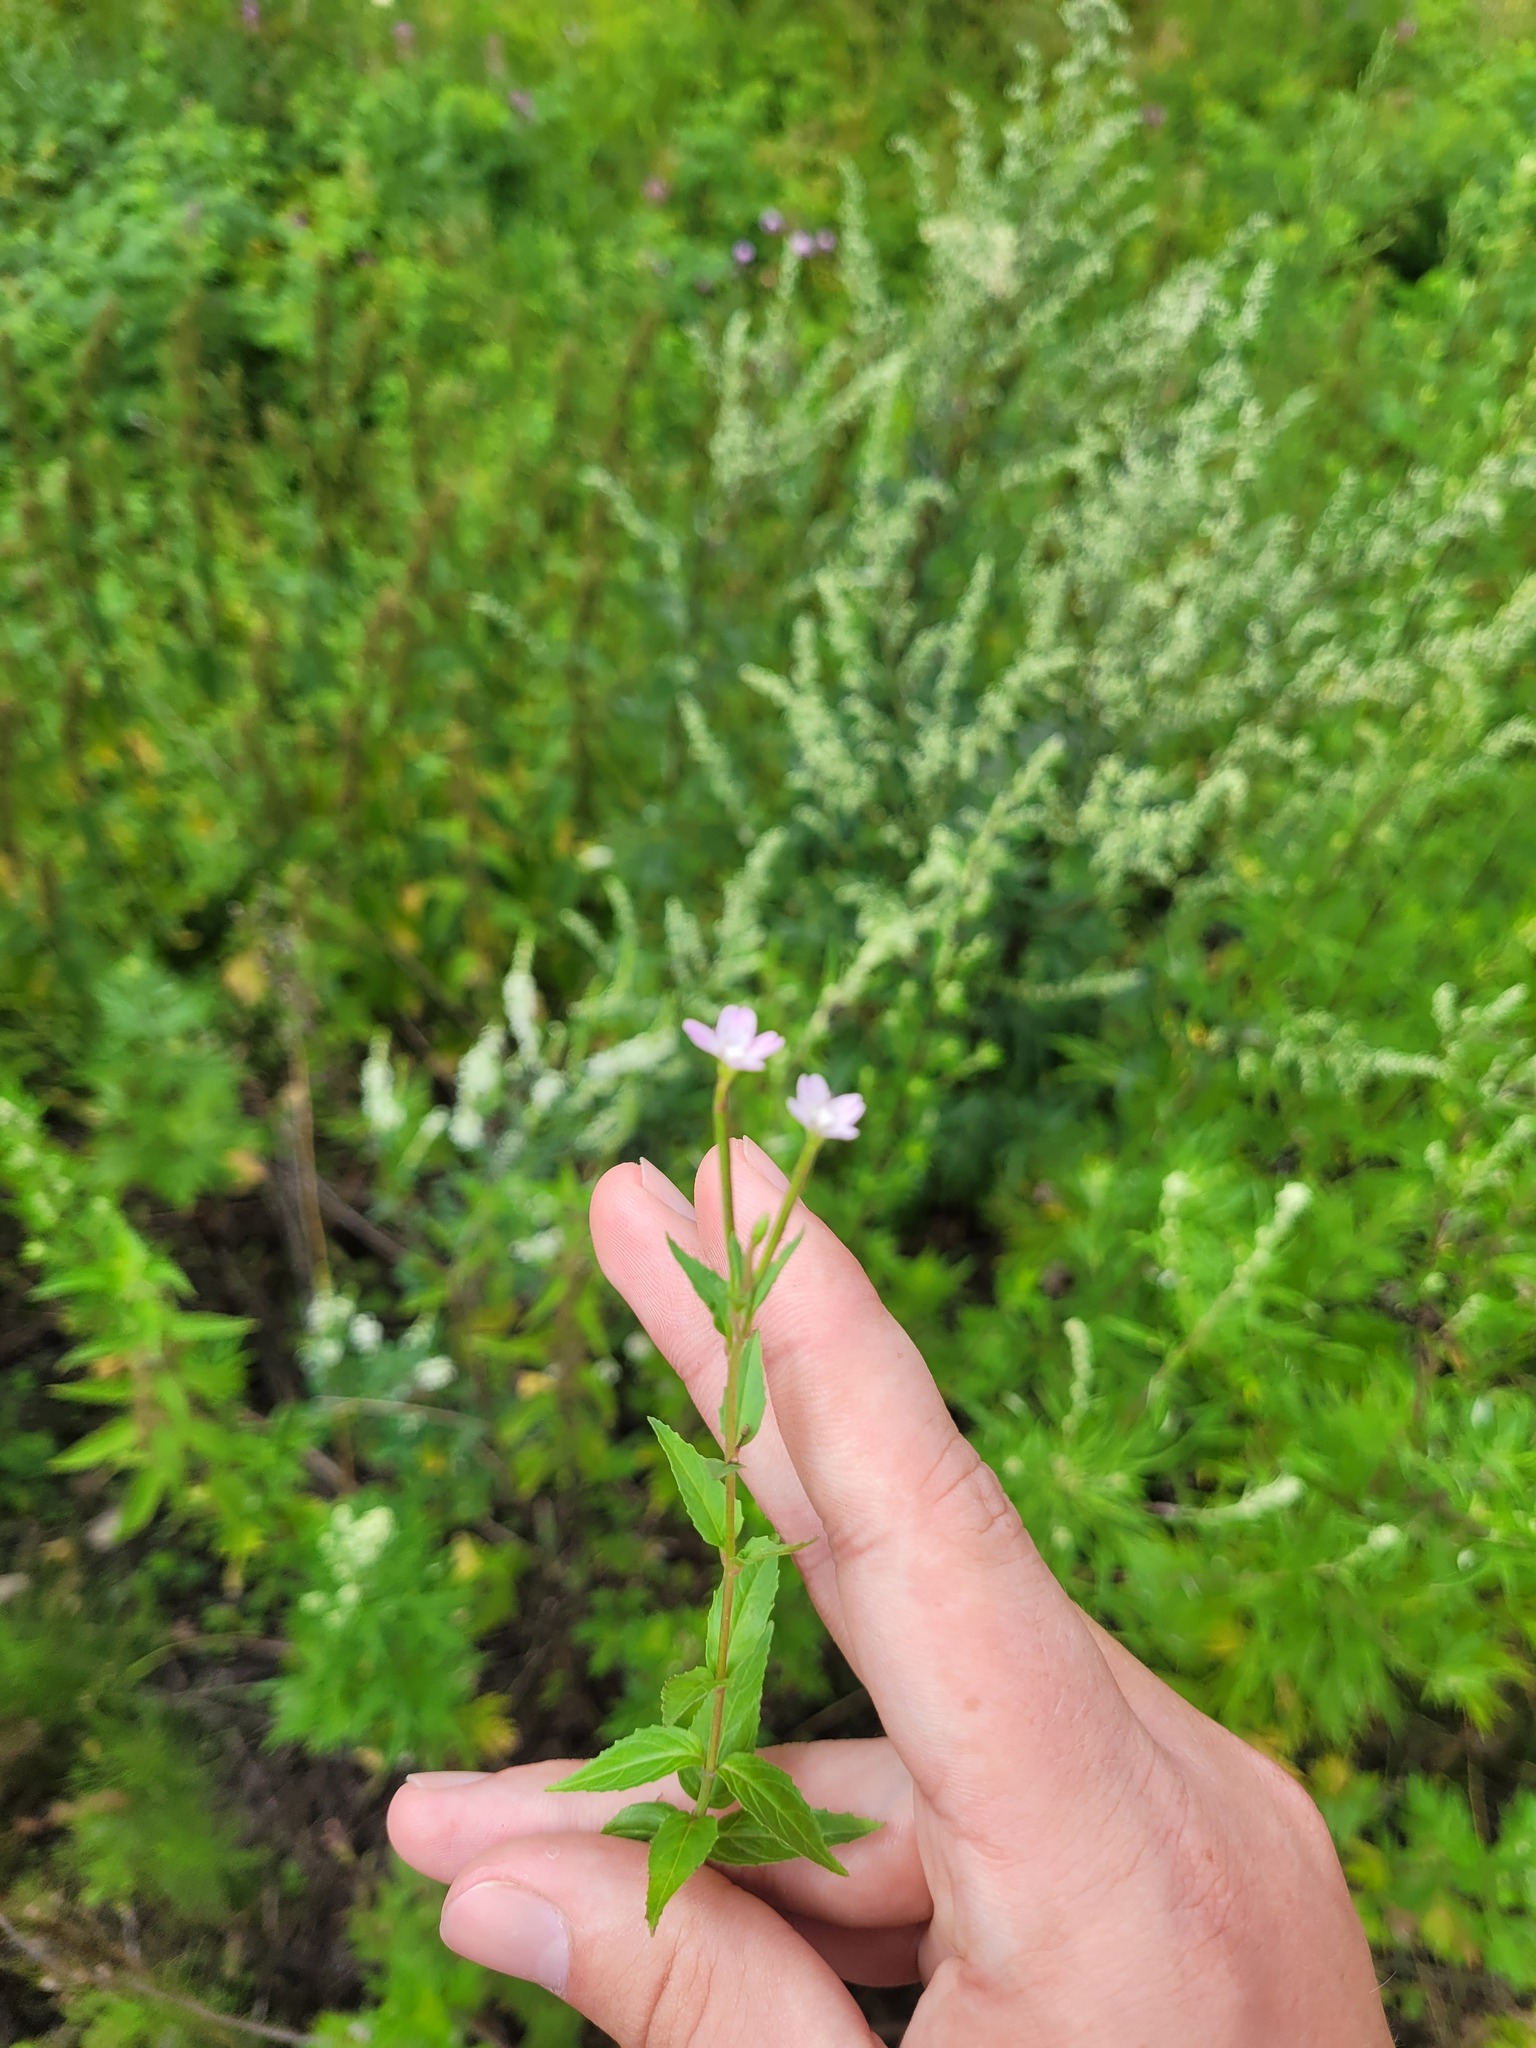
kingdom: Plantae
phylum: Tracheophyta
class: Magnoliopsida
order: Myrtales
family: Onagraceae
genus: Epilobium
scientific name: Epilobium montanum
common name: Broad-leaved willowherb
